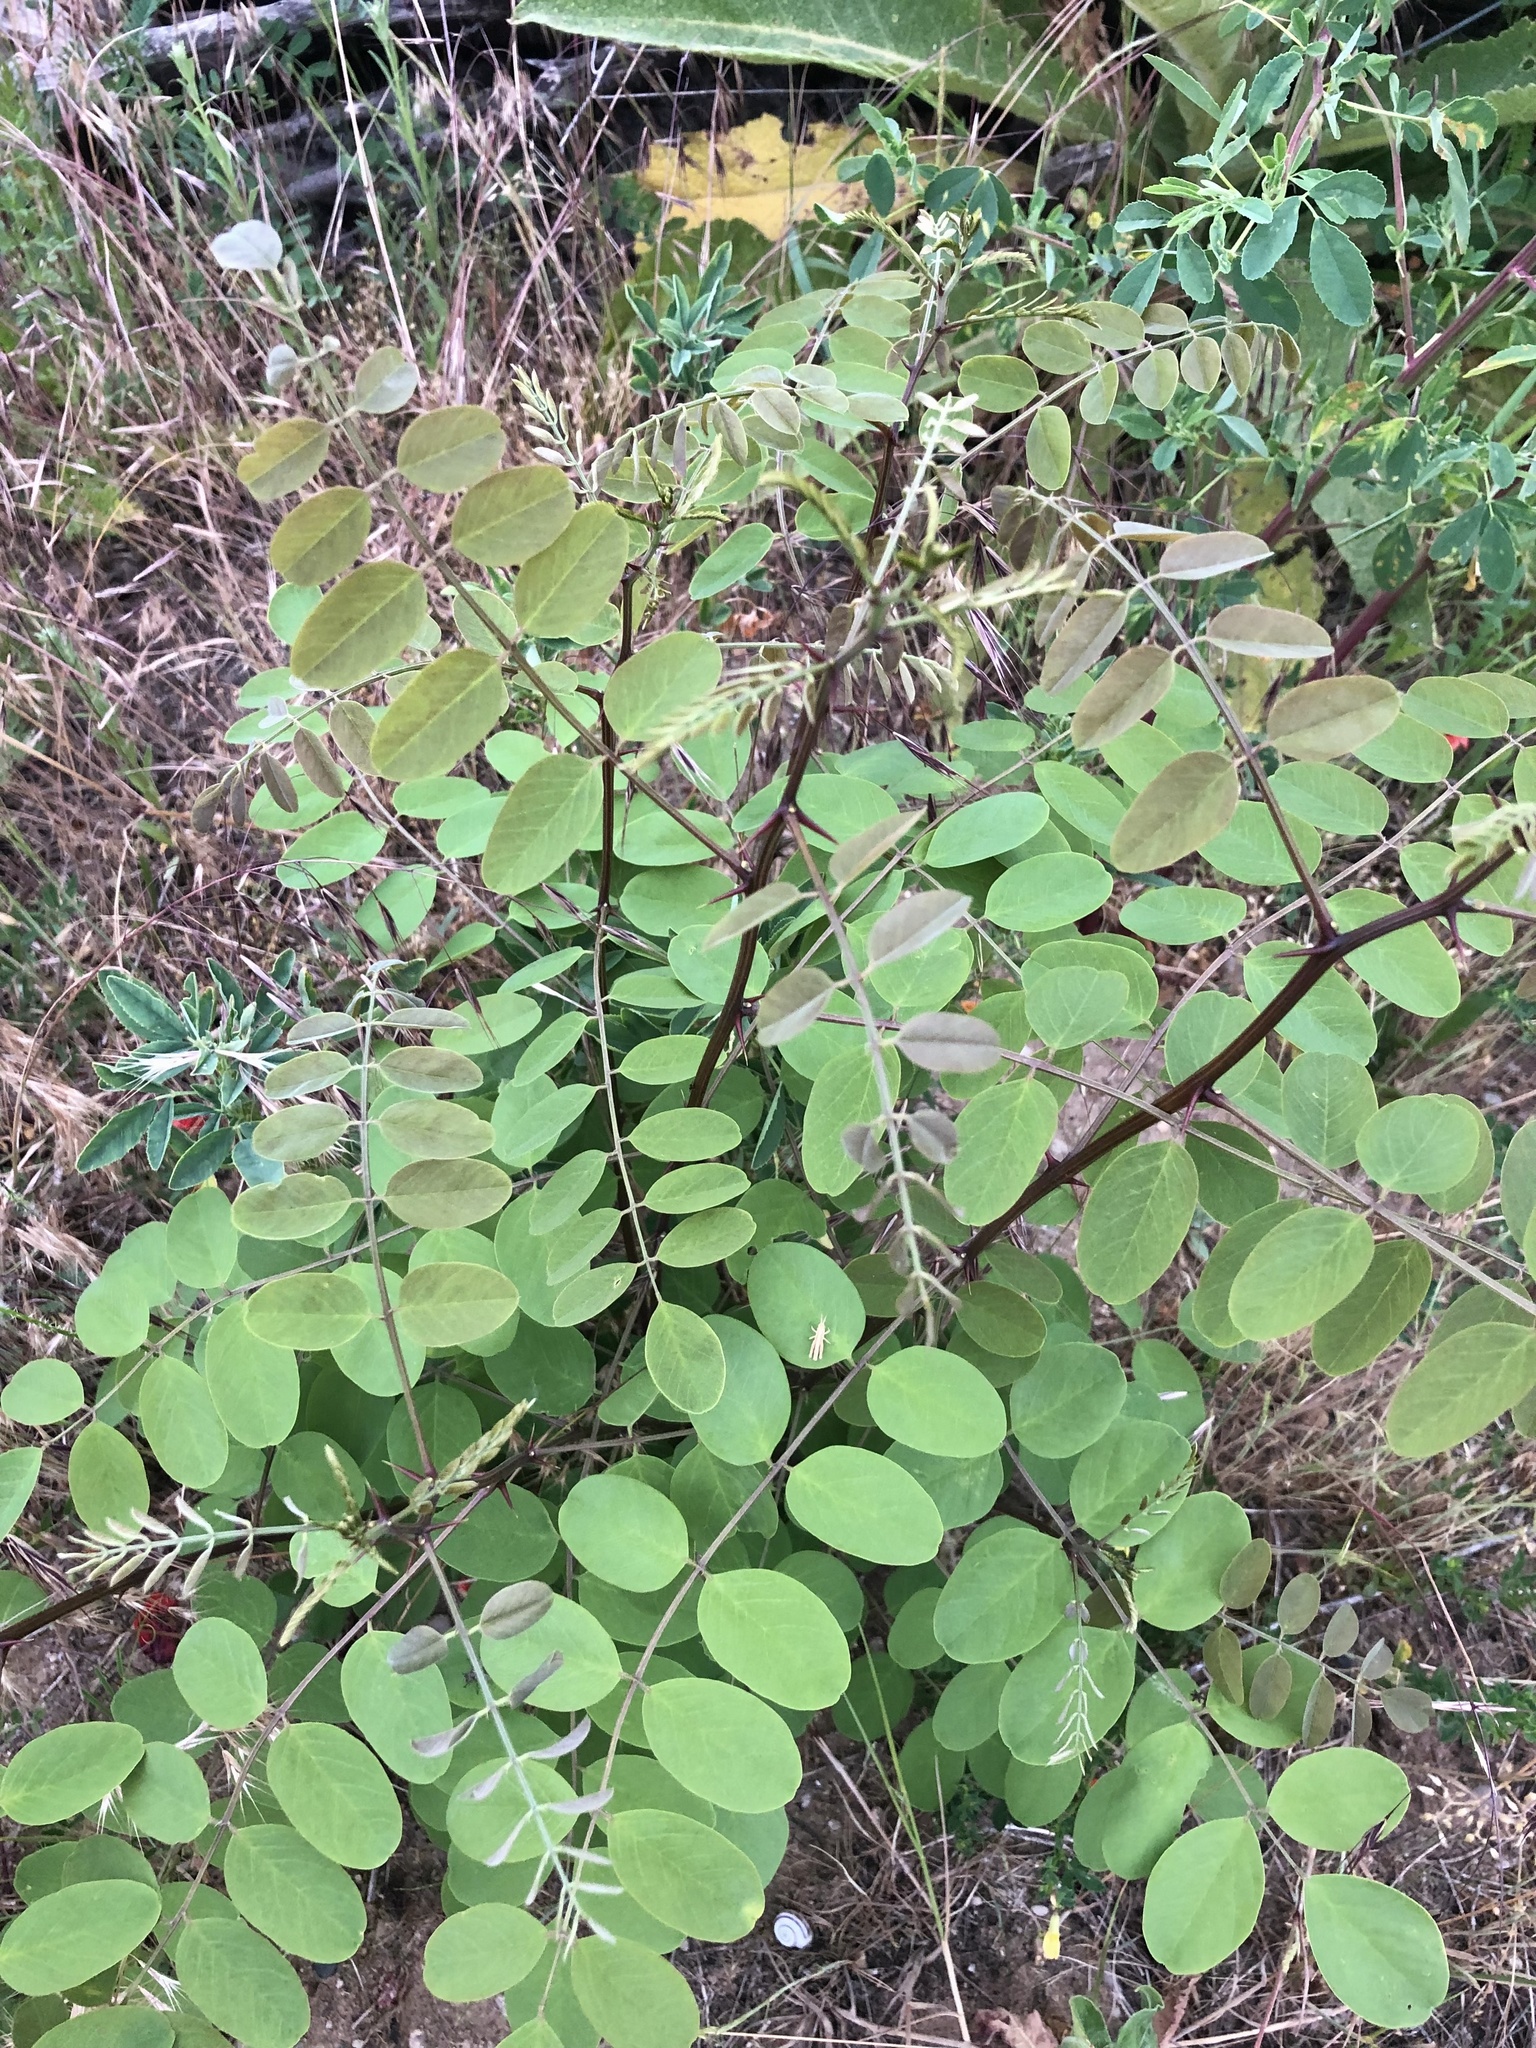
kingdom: Plantae
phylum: Tracheophyta
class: Magnoliopsida
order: Fabales
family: Fabaceae
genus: Robinia
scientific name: Robinia pseudoacacia
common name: Black locust
